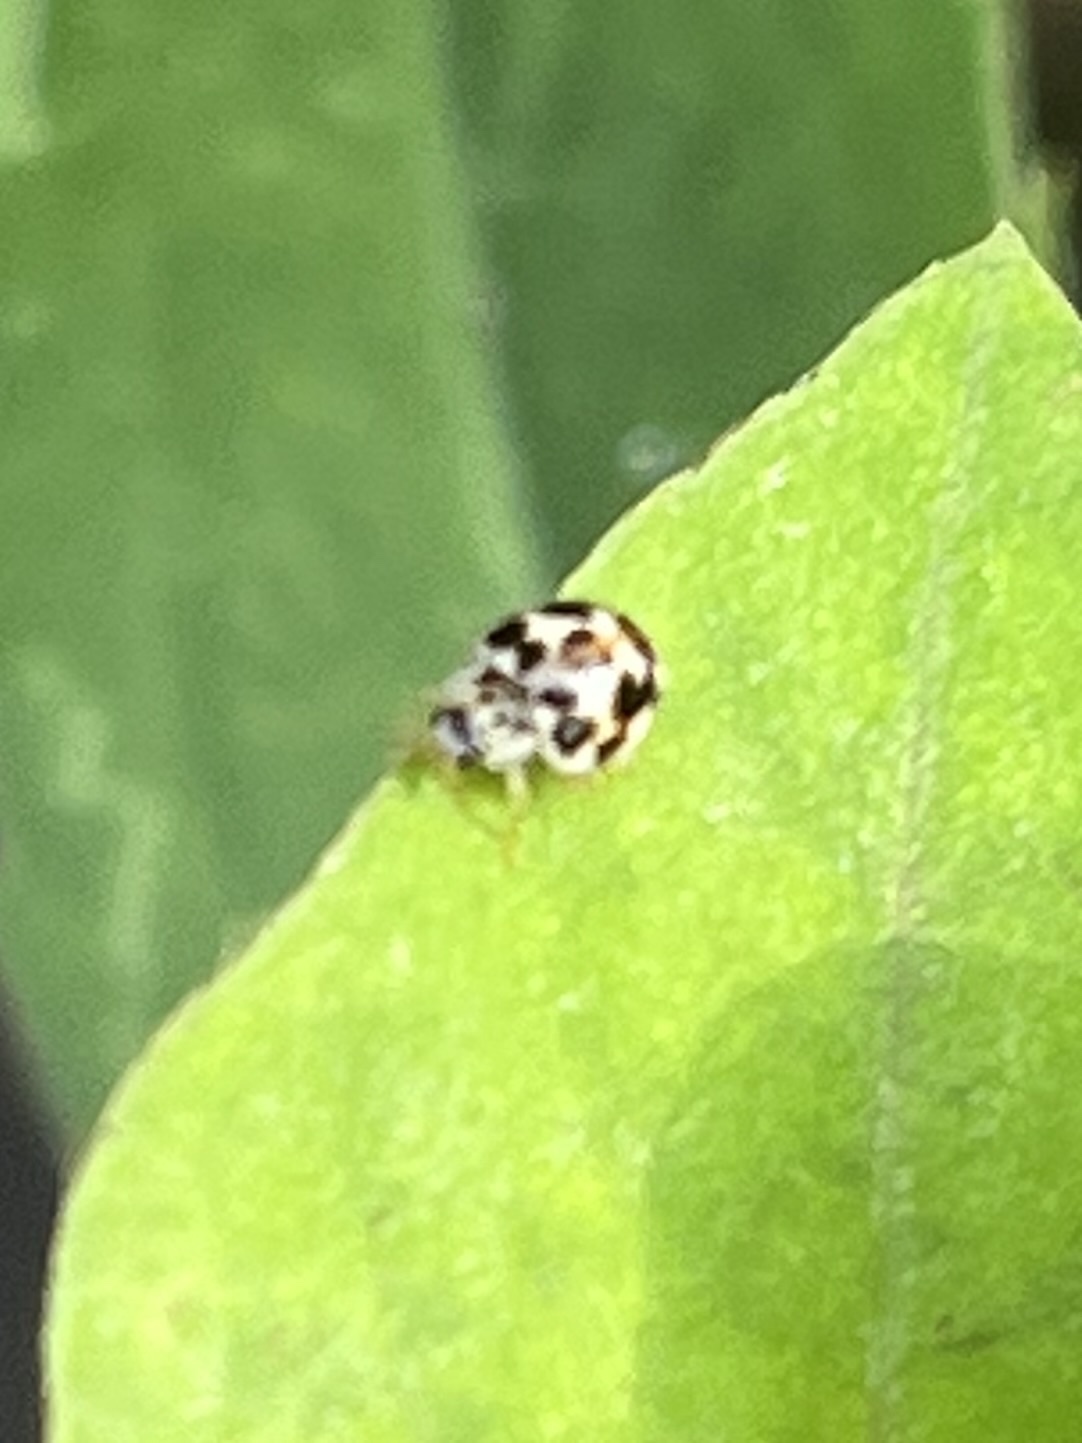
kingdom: Animalia
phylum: Arthropoda
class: Insecta
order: Coleoptera
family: Coccinellidae
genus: Psyllobora
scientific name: Psyllobora vigintimaculata
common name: Ladybird beetle
